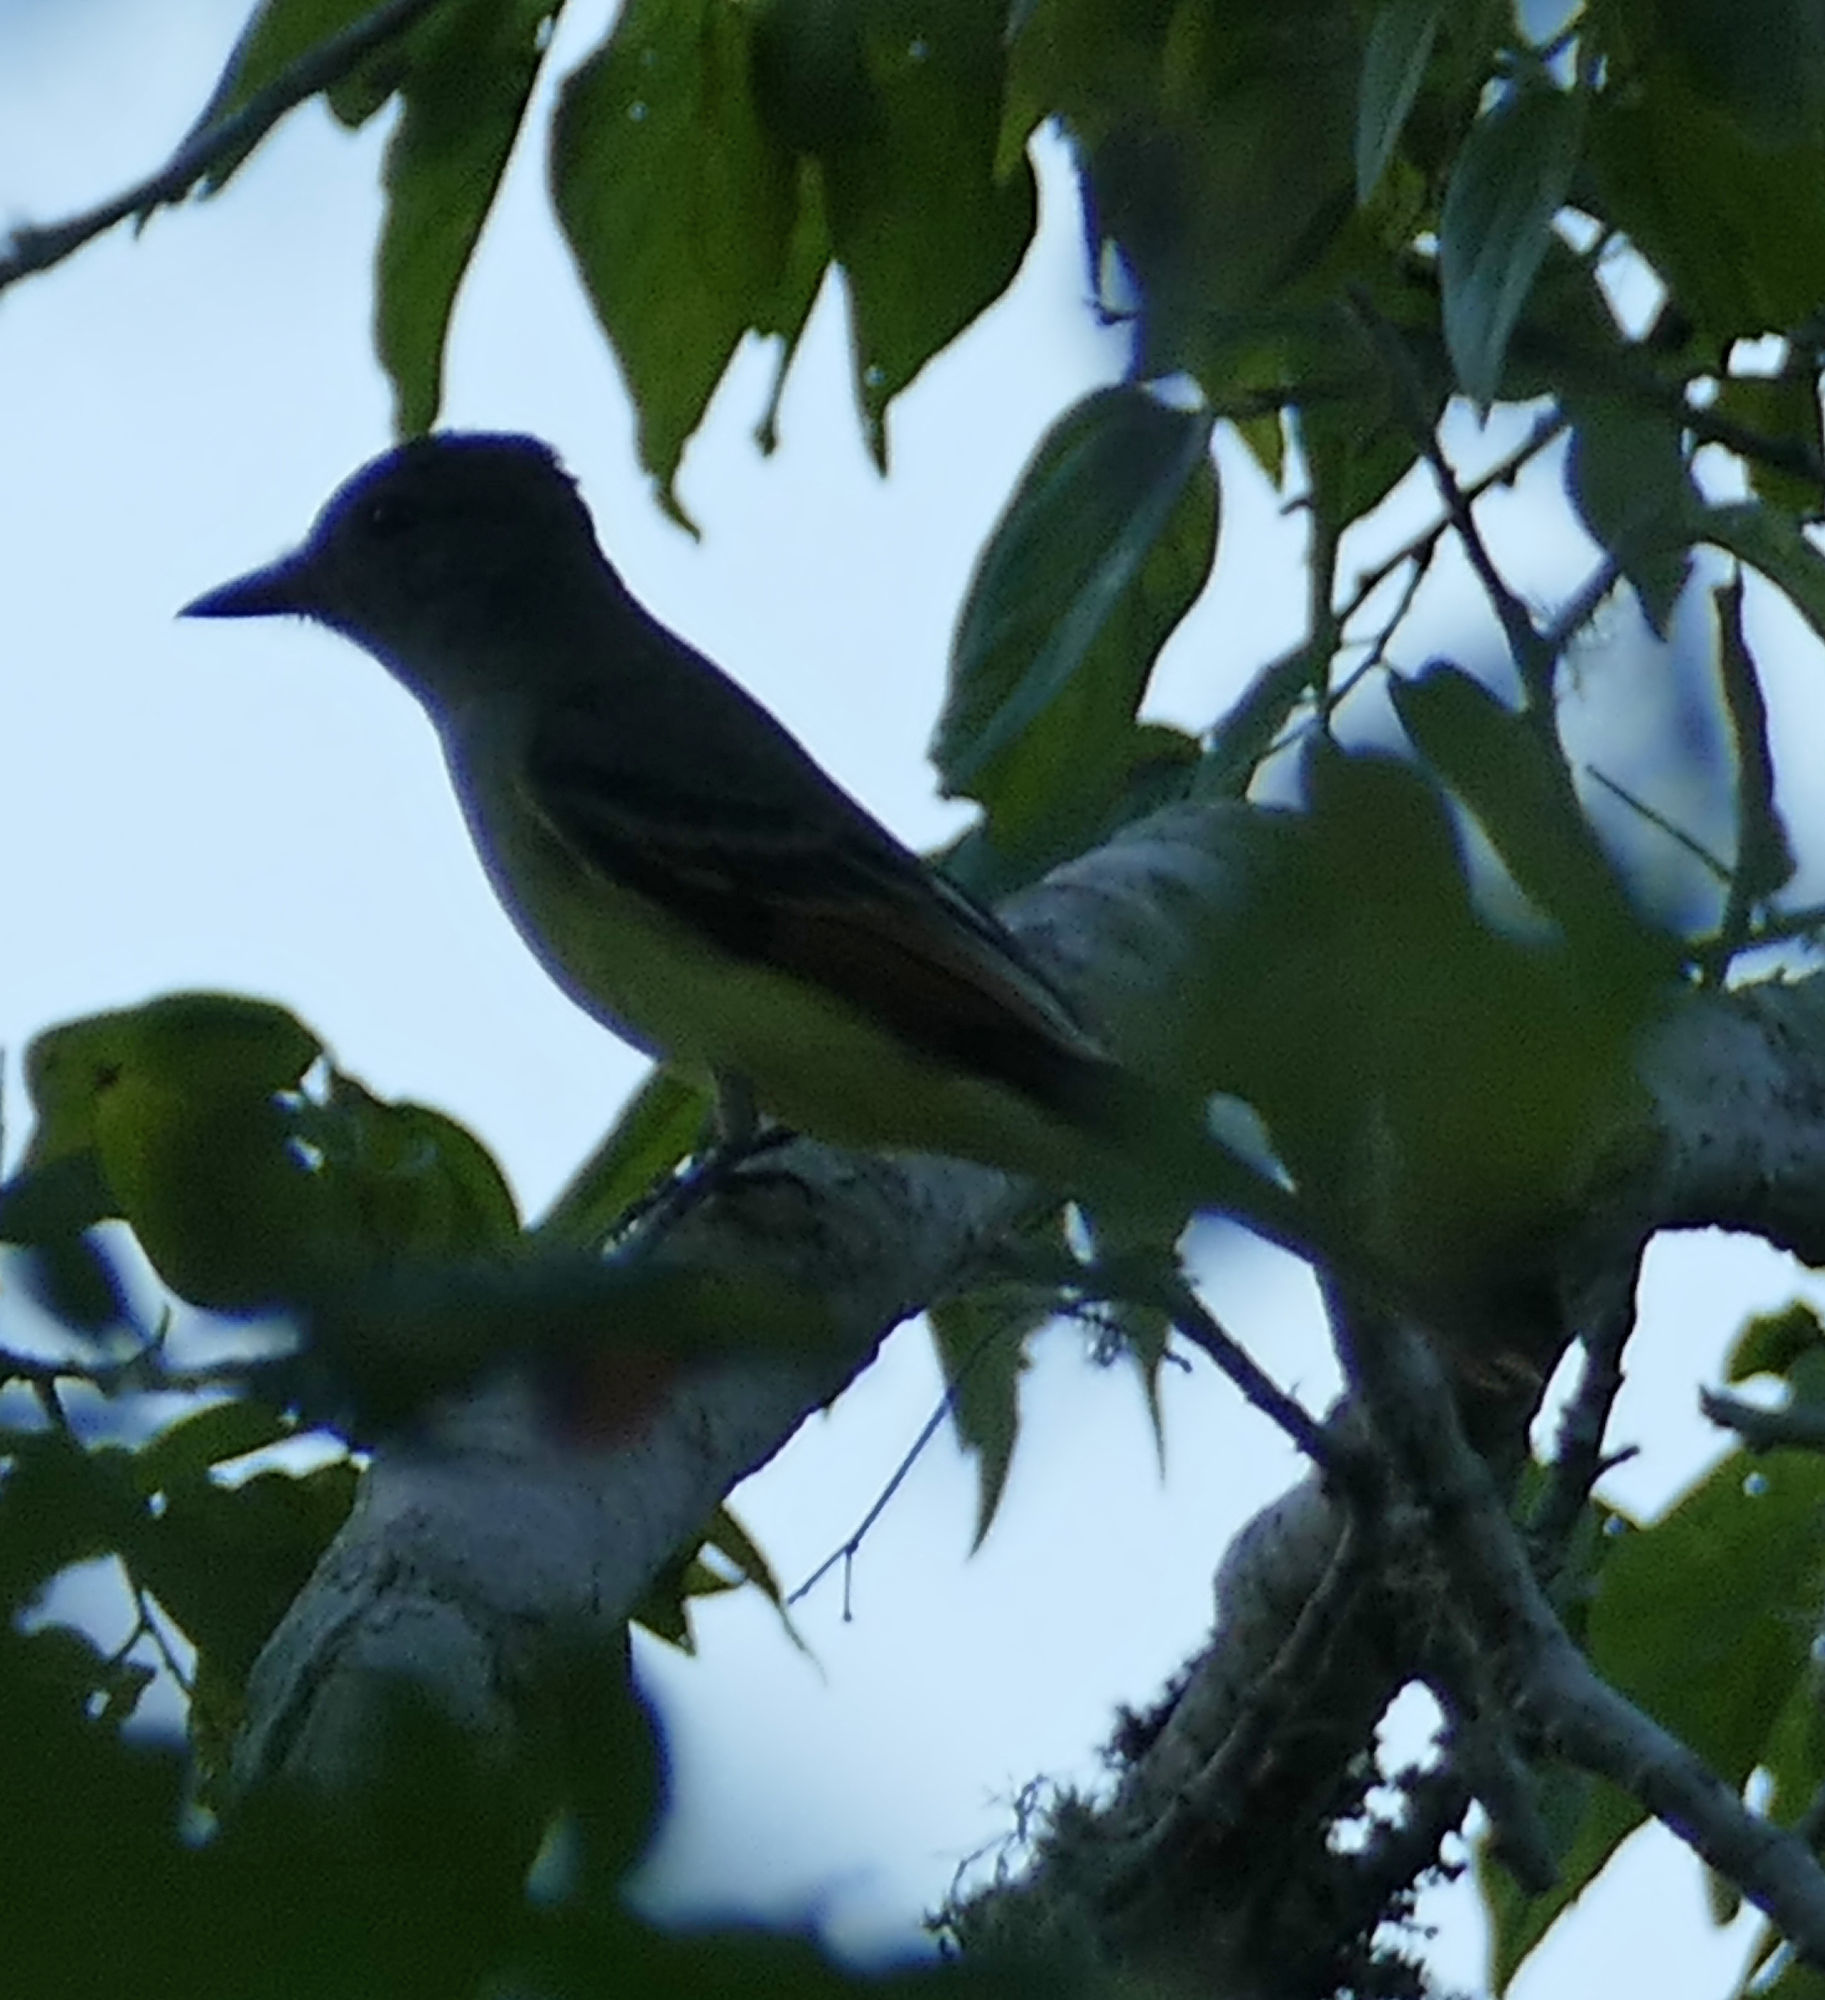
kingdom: Animalia
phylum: Chordata
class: Aves
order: Passeriformes
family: Tyrannidae
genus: Myiarchus
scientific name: Myiarchus crinitus
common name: Great crested flycatcher
